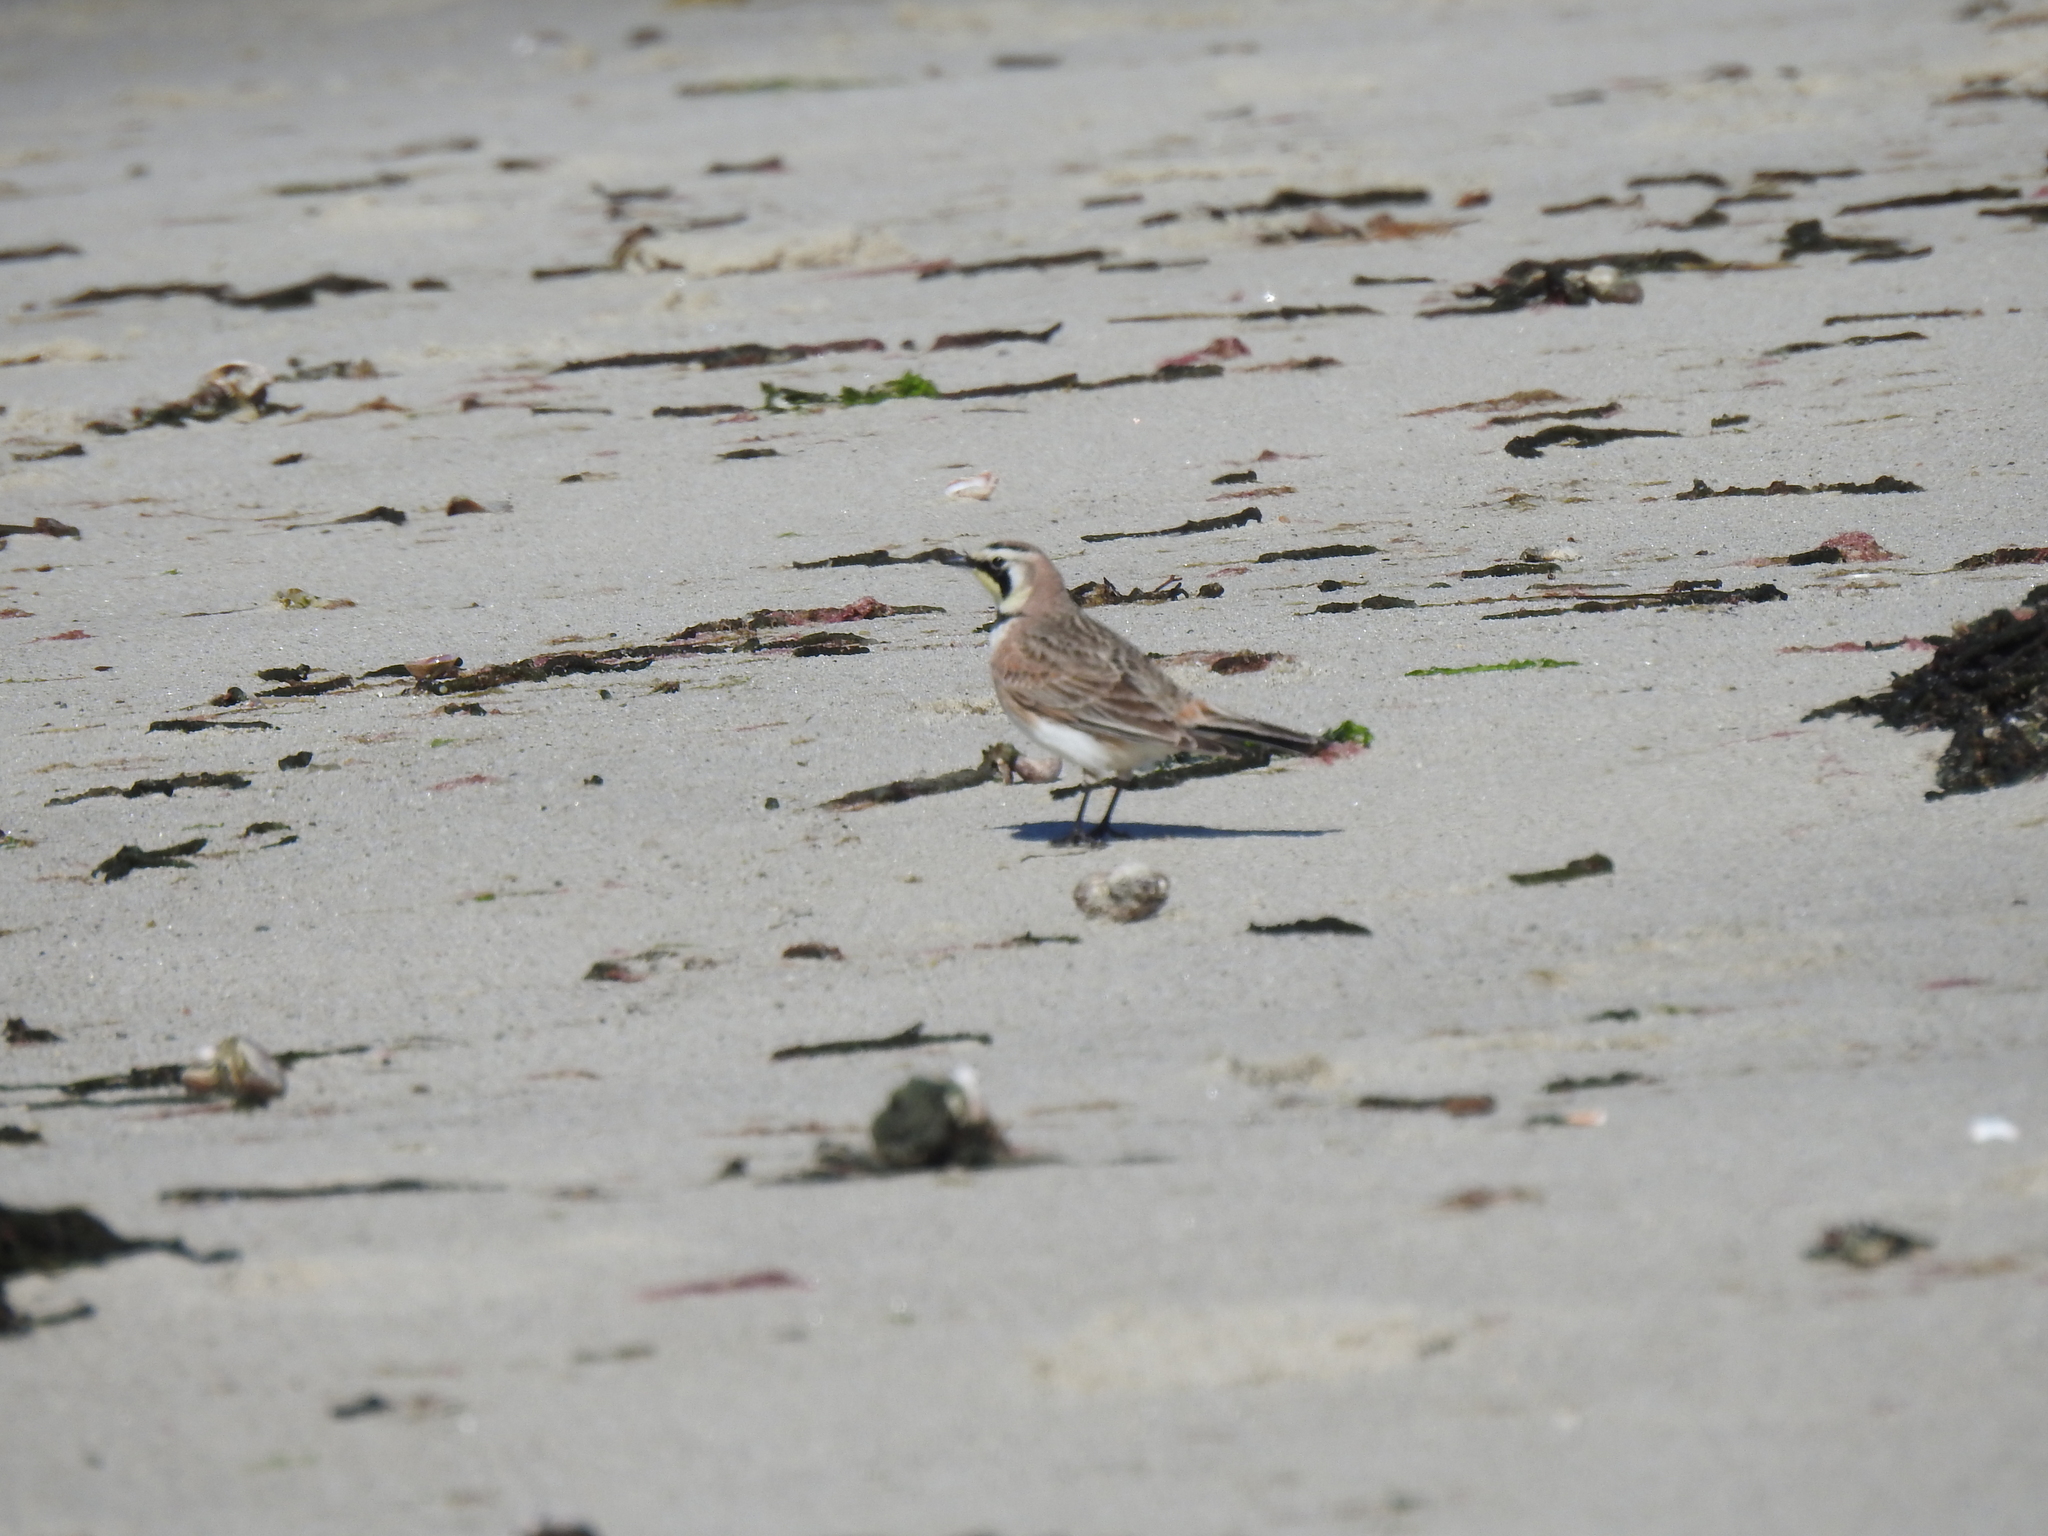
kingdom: Animalia
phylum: Chordata
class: Aves
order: Passeriformes
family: Alaudidae
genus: Eremophila
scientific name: Eremophila alpestris
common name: Horned lark
